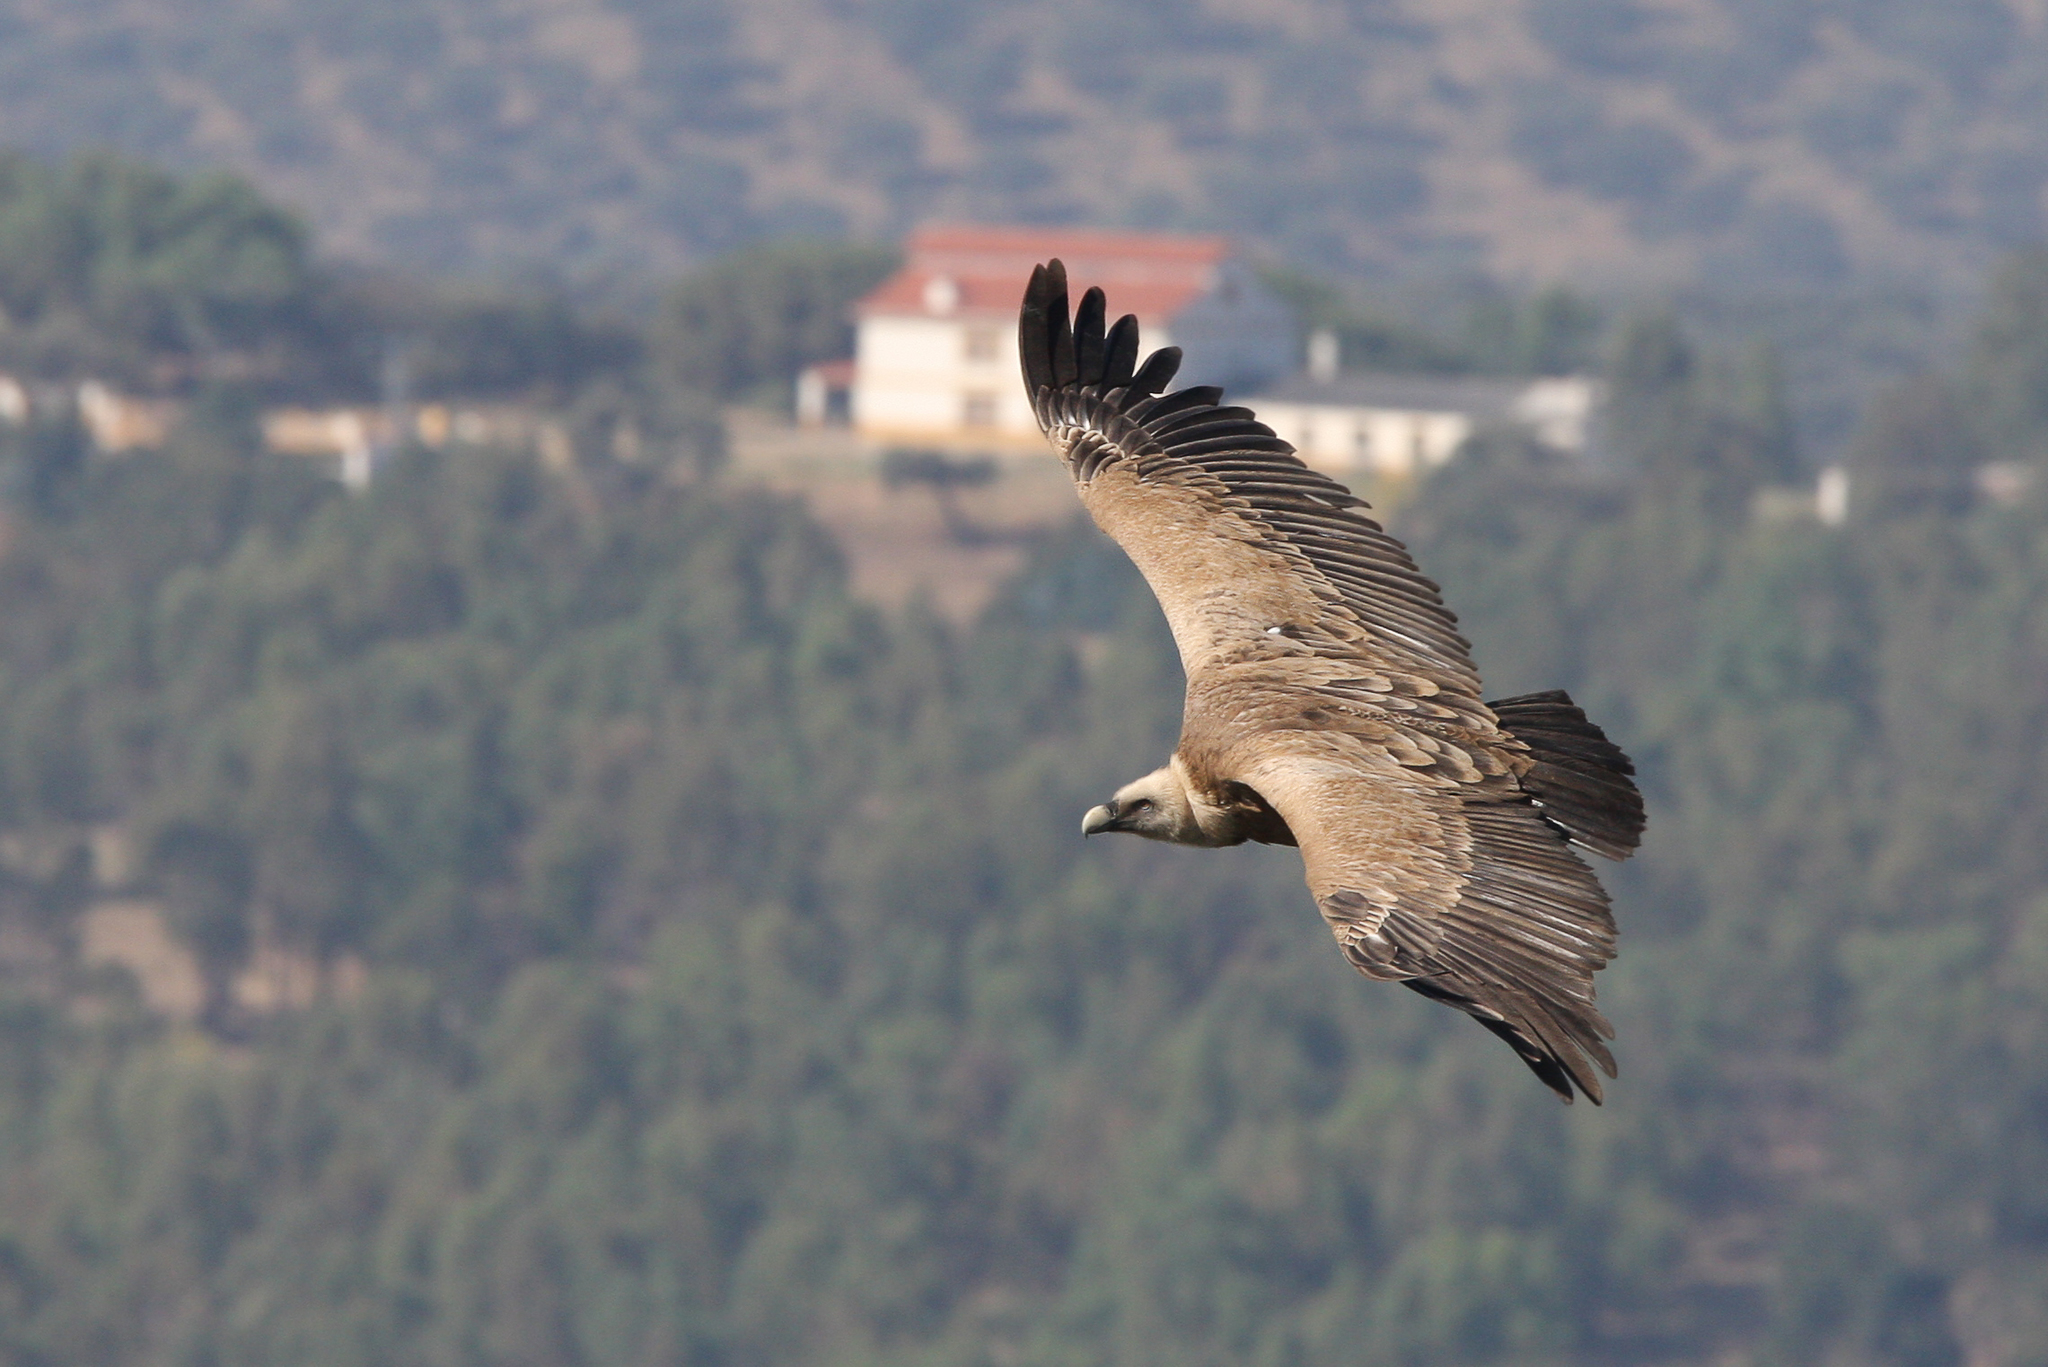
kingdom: Animalia
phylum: Chordata
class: Aves
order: Accipitriformes
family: Accipitridae
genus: Gyps
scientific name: Gyps fulvus
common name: Griffon vulture
